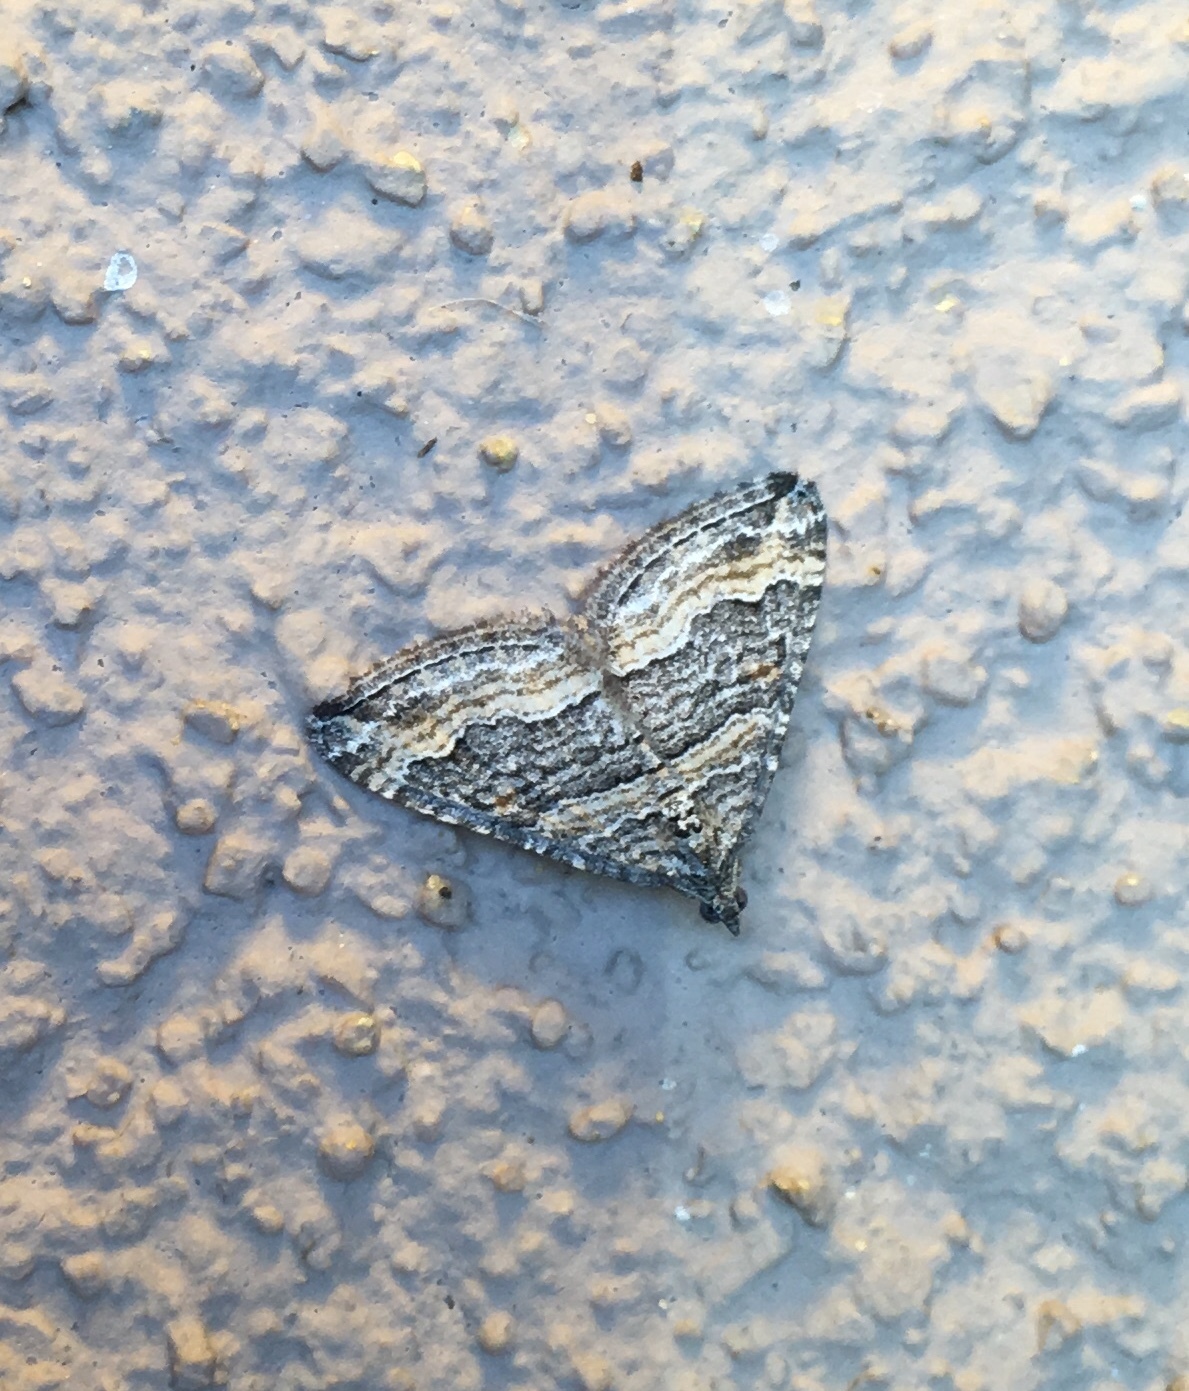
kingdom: Animalia
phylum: Arthropoda
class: Insecta
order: Lepidoptera
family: Geometridae
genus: Perizoma
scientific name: Perizoma custodiata
